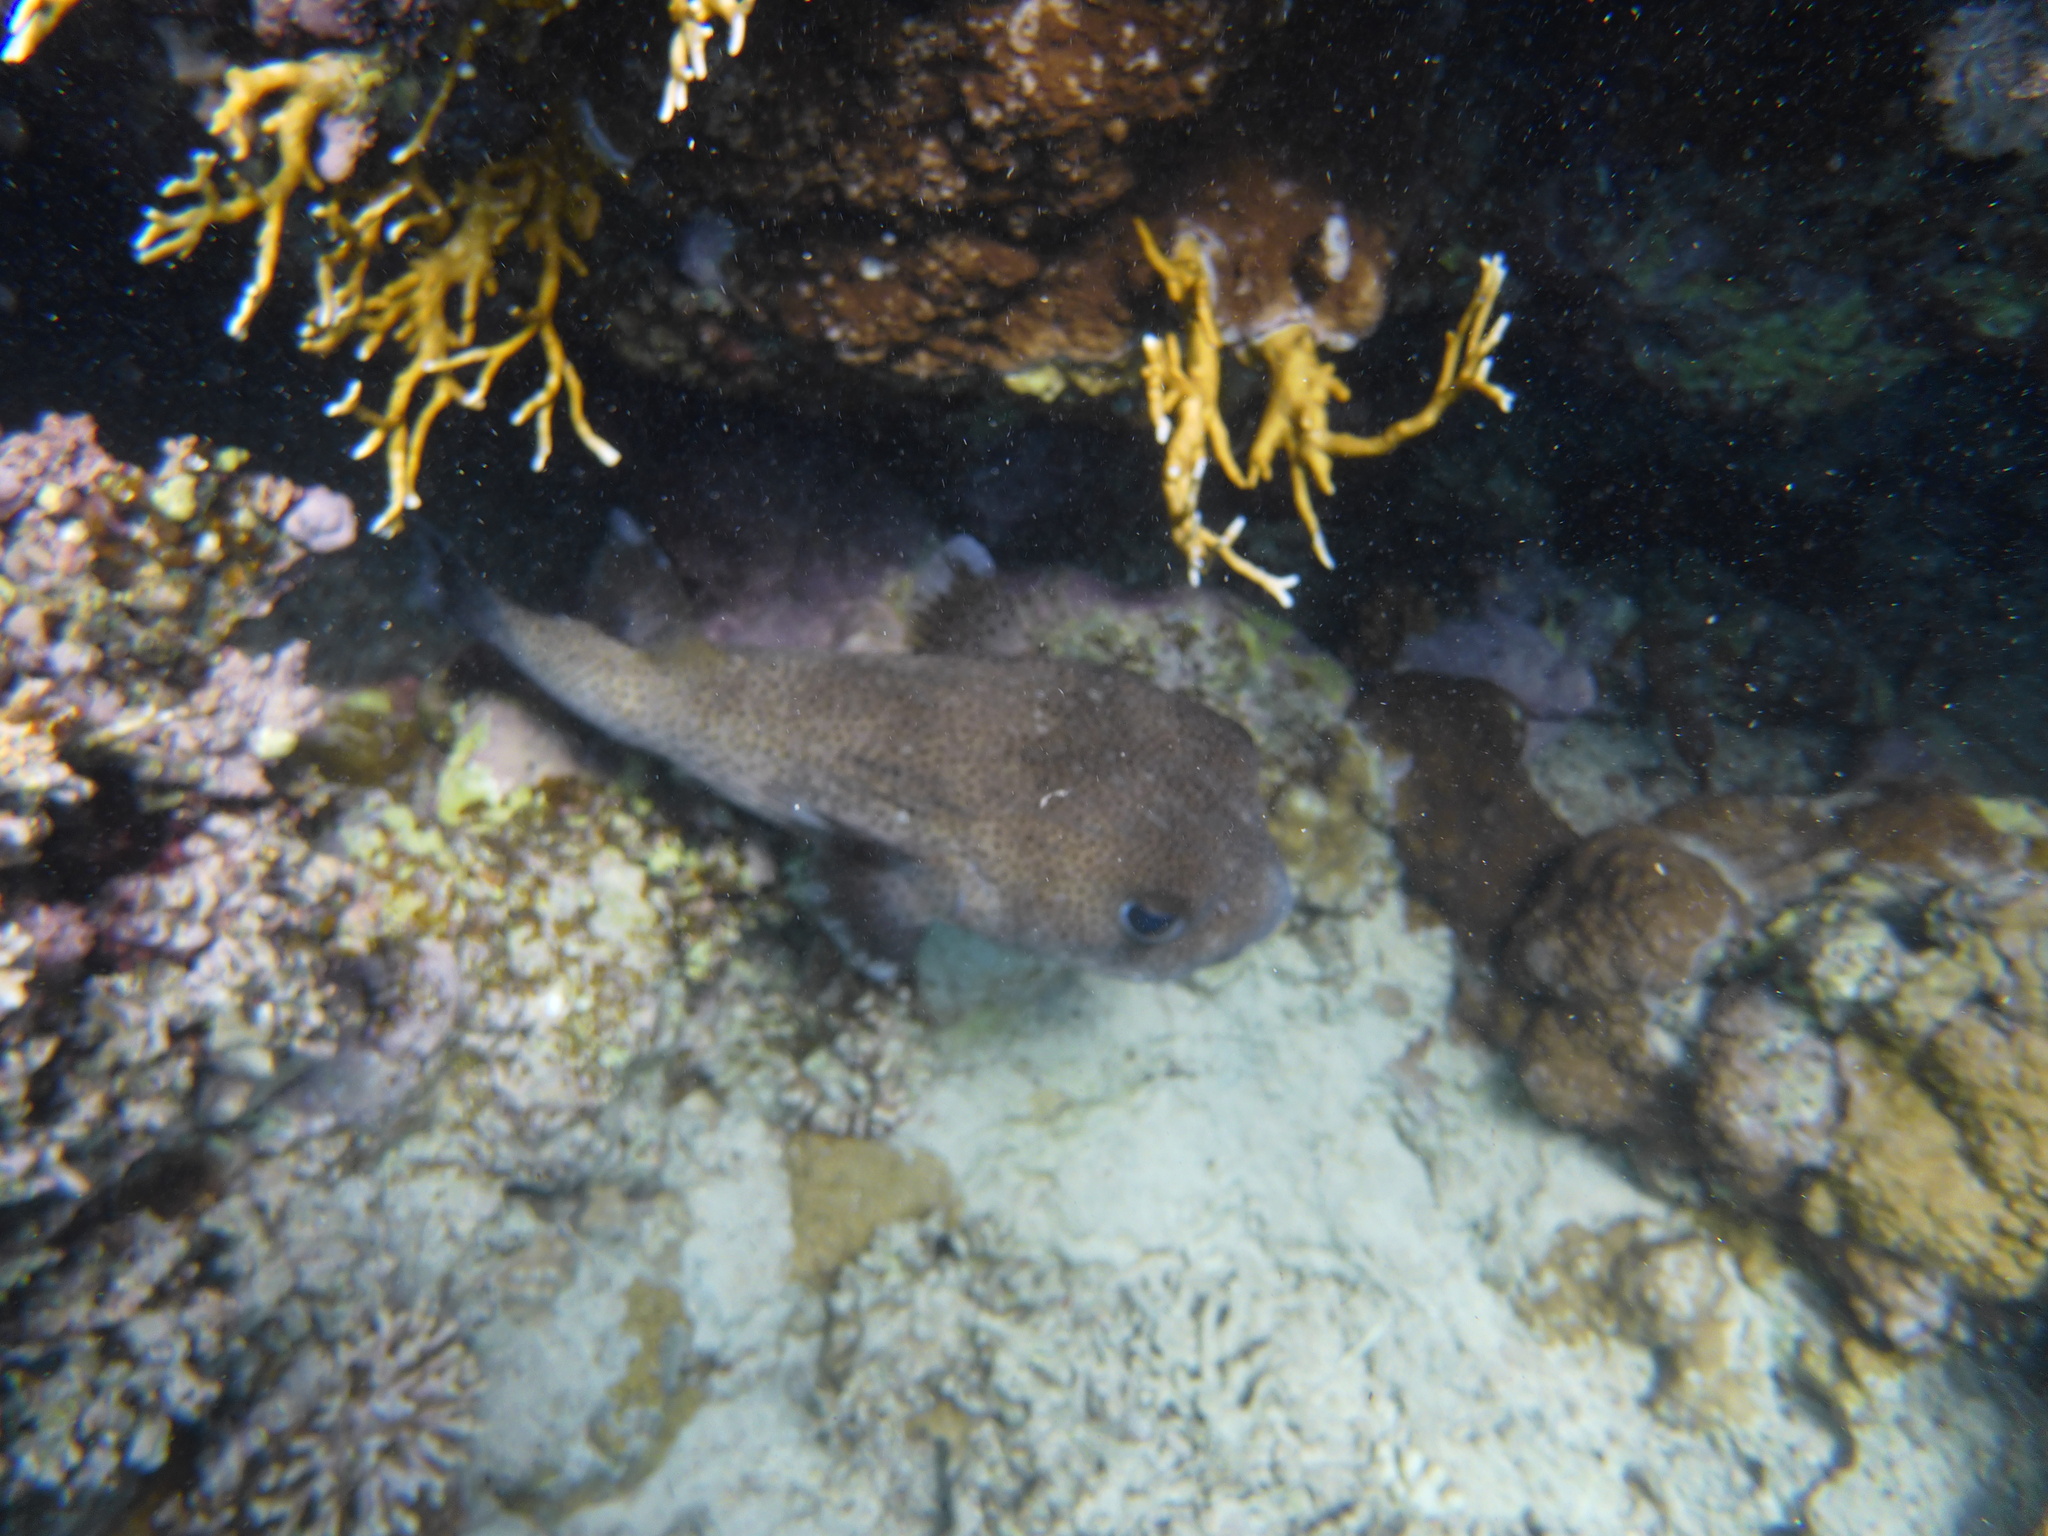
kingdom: Animalia
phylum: Chordata
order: Tetraodontiformes
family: Diodontidae
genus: Diodon
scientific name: Diodon hystrix
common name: Giant porcupinefish
